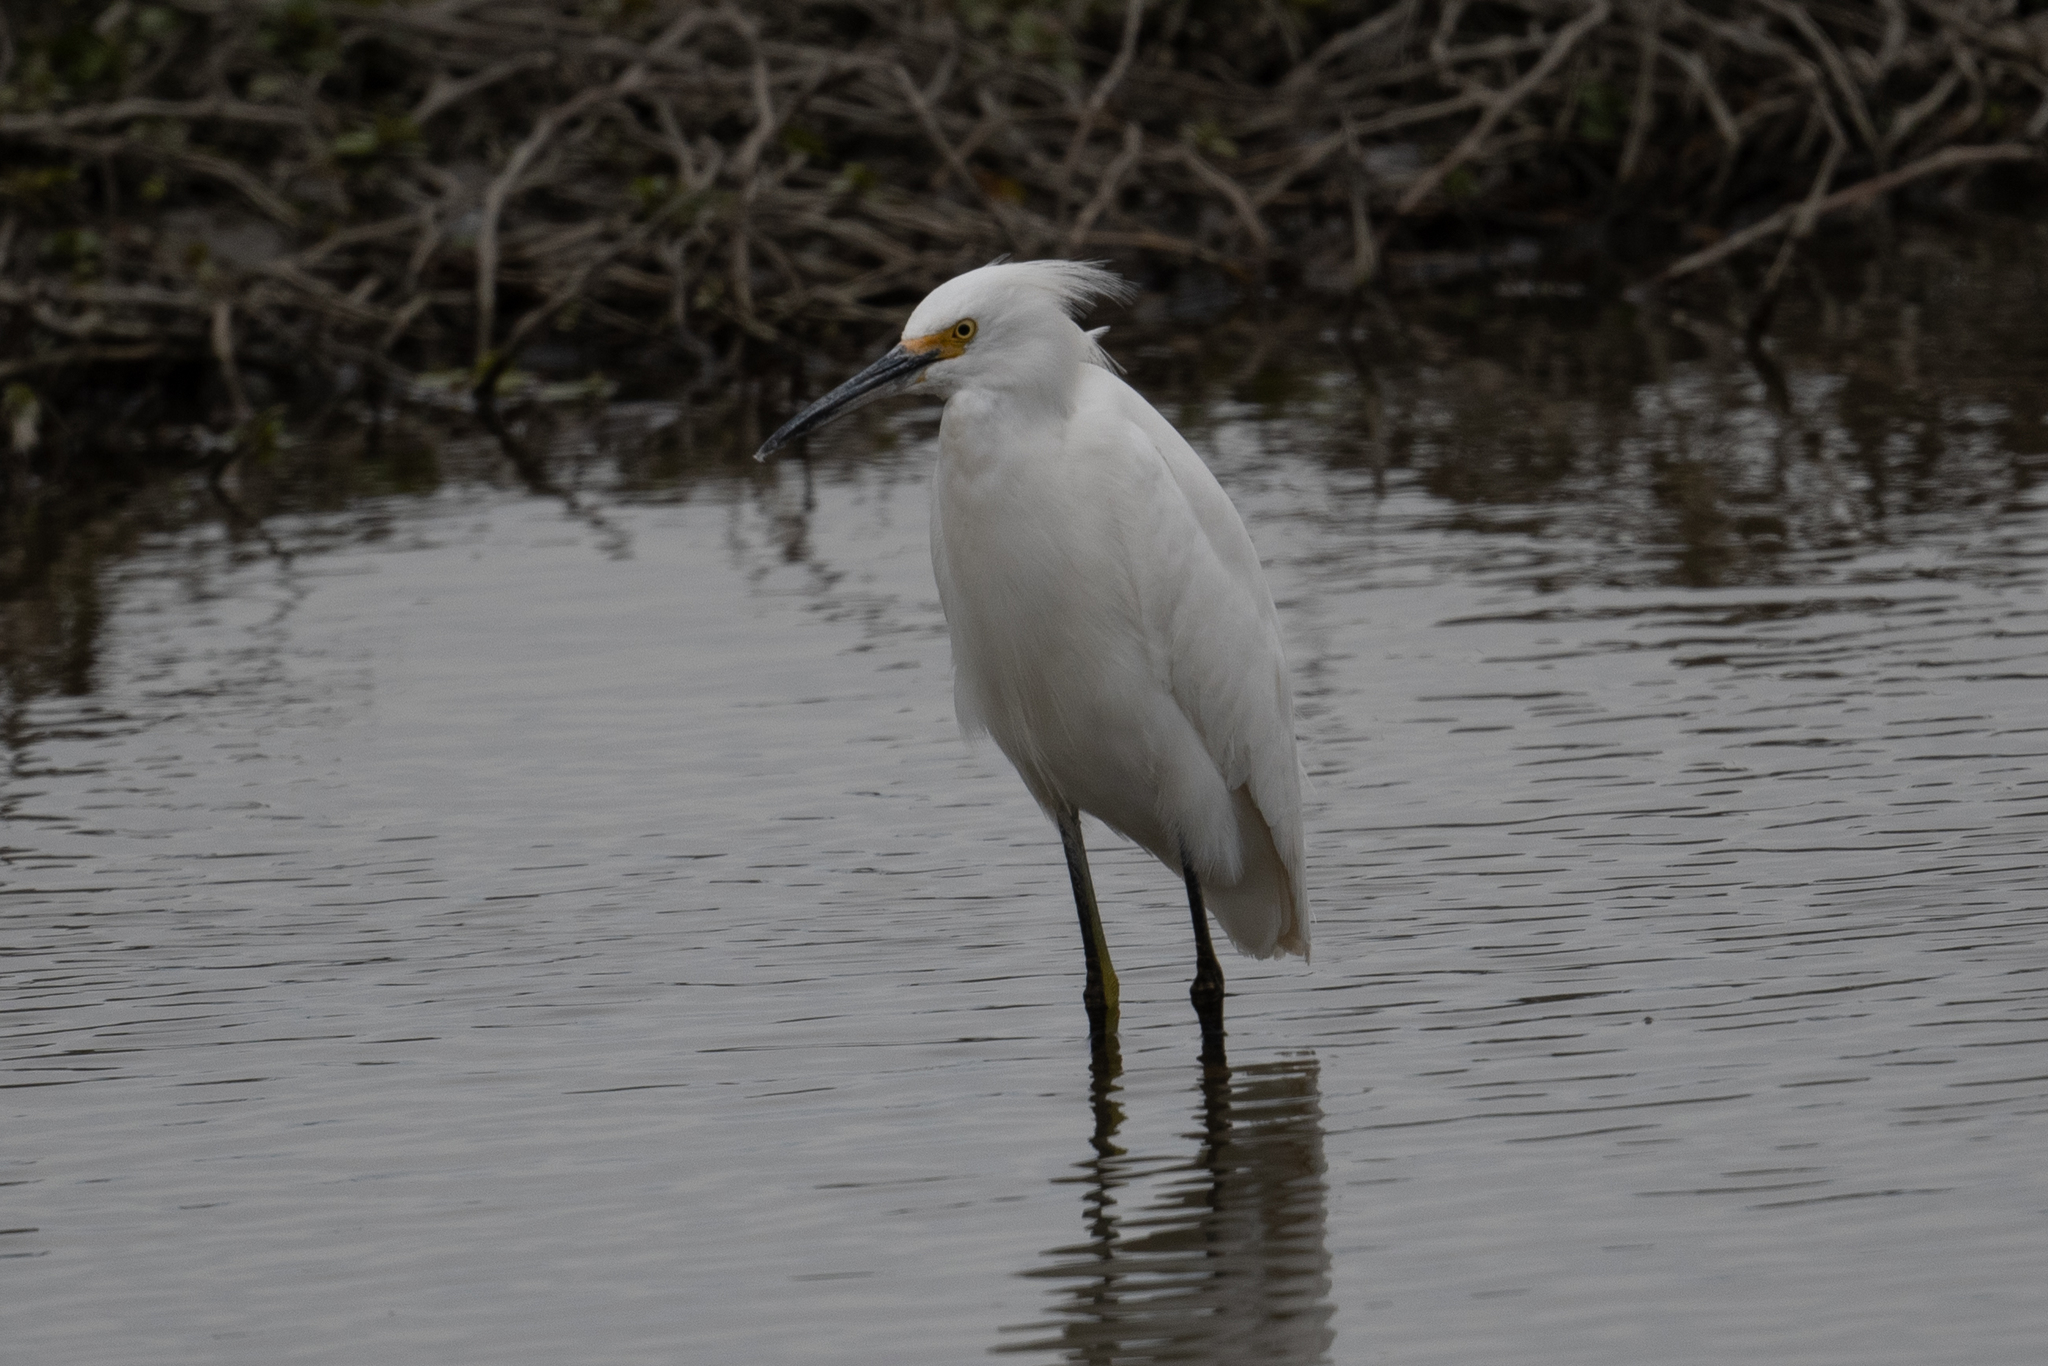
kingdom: Animalia
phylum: Chordata
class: Aves
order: Pelecaniformes
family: Ardeidae
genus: Egretta
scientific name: Egretta thula
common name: Snowy egret
